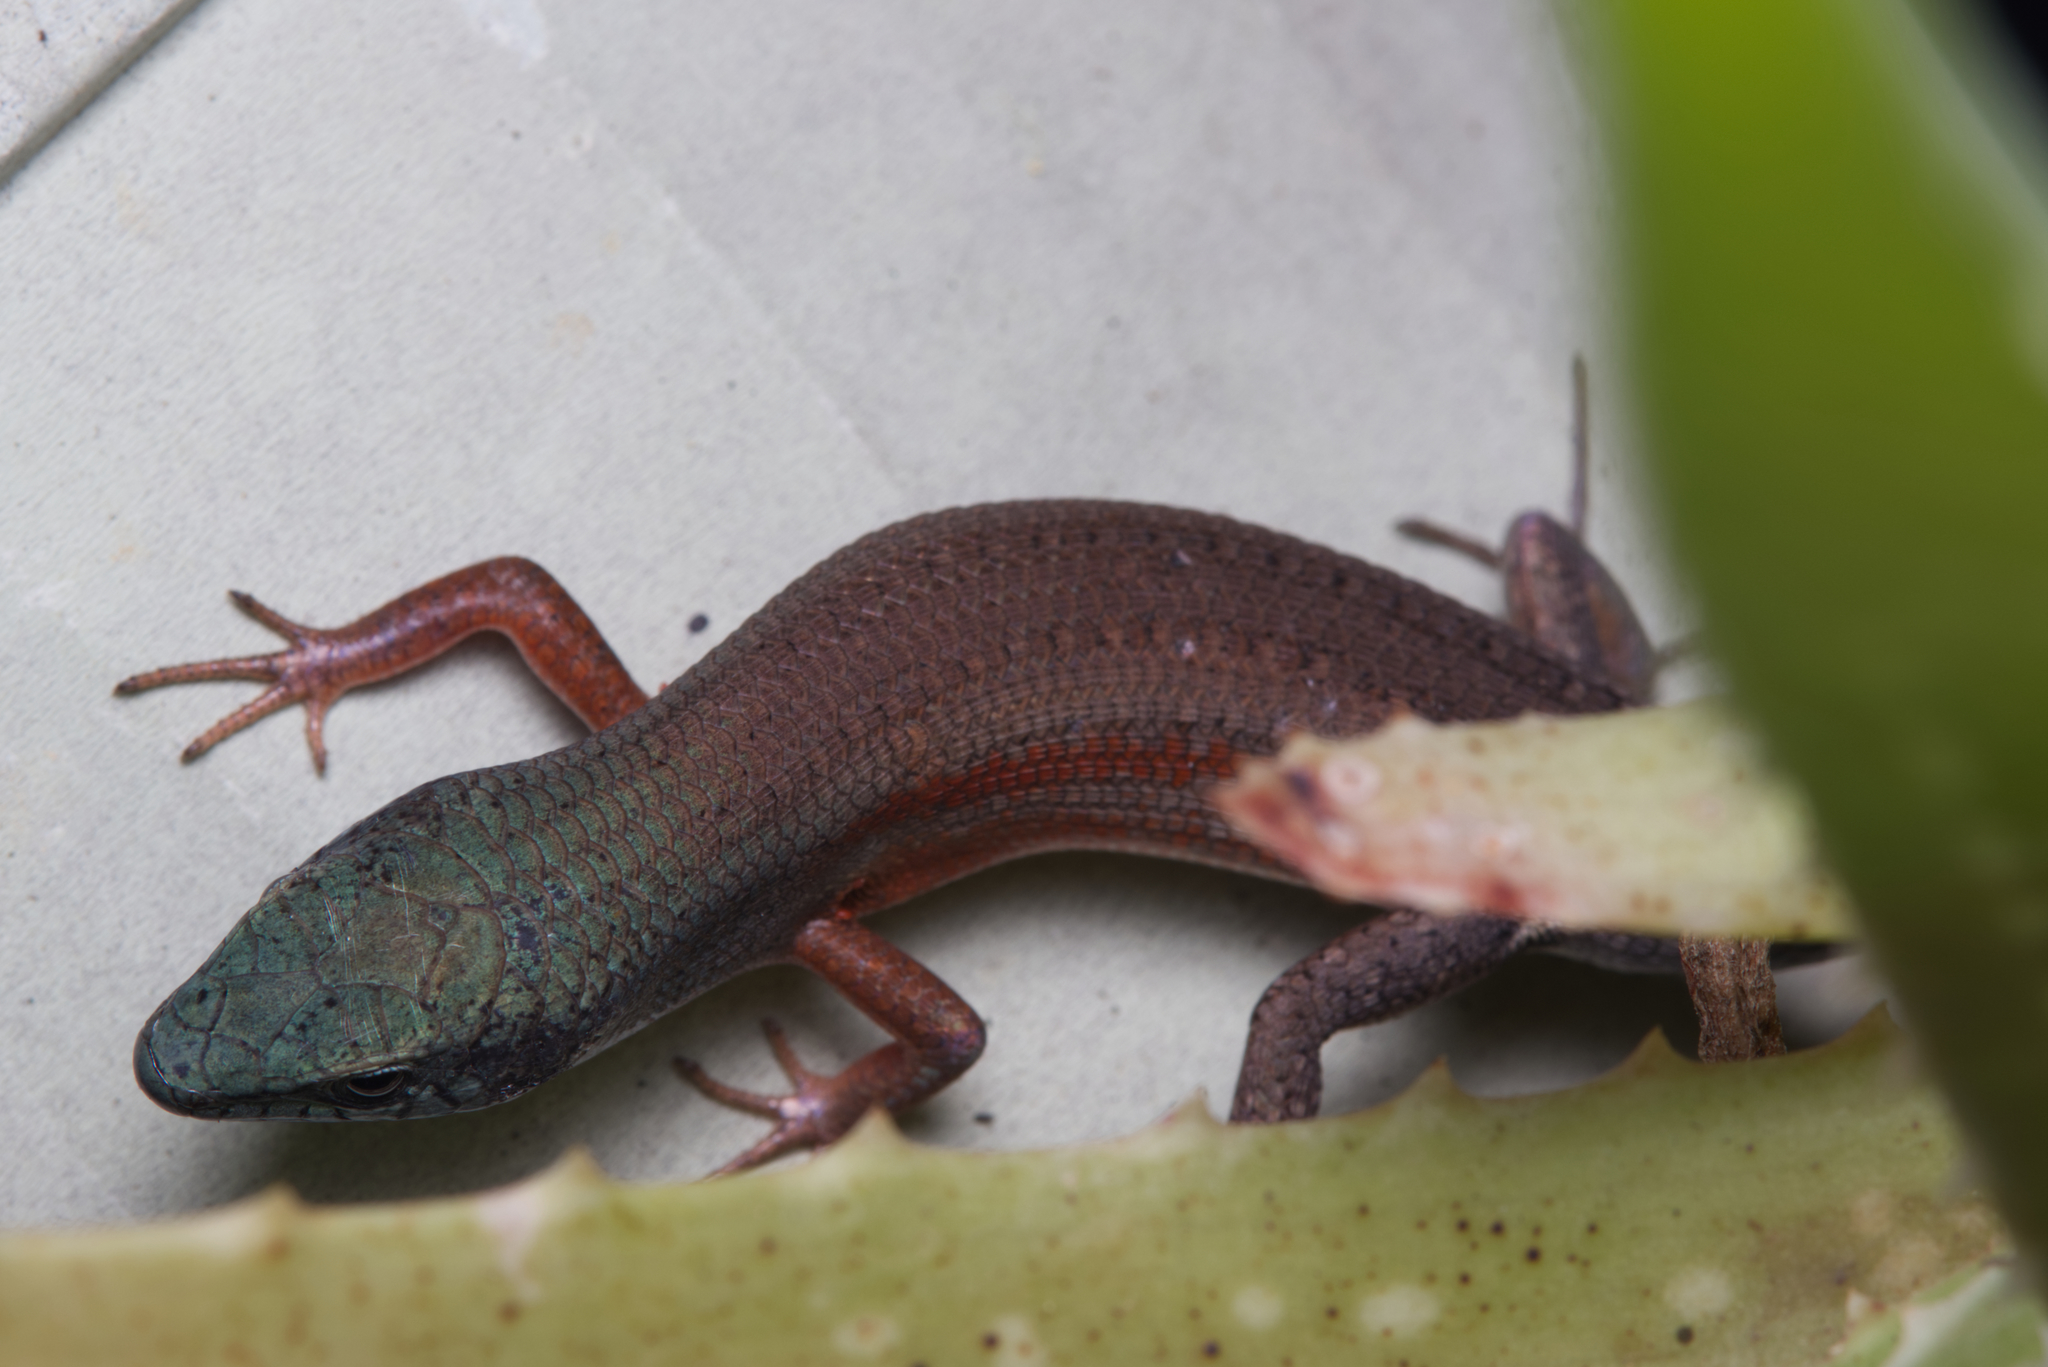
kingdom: Animalia
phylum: Chordata
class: Squamata
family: Scincidae
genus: Carlia
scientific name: Carlia pectoralis
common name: Open-litter rainbow-skink
